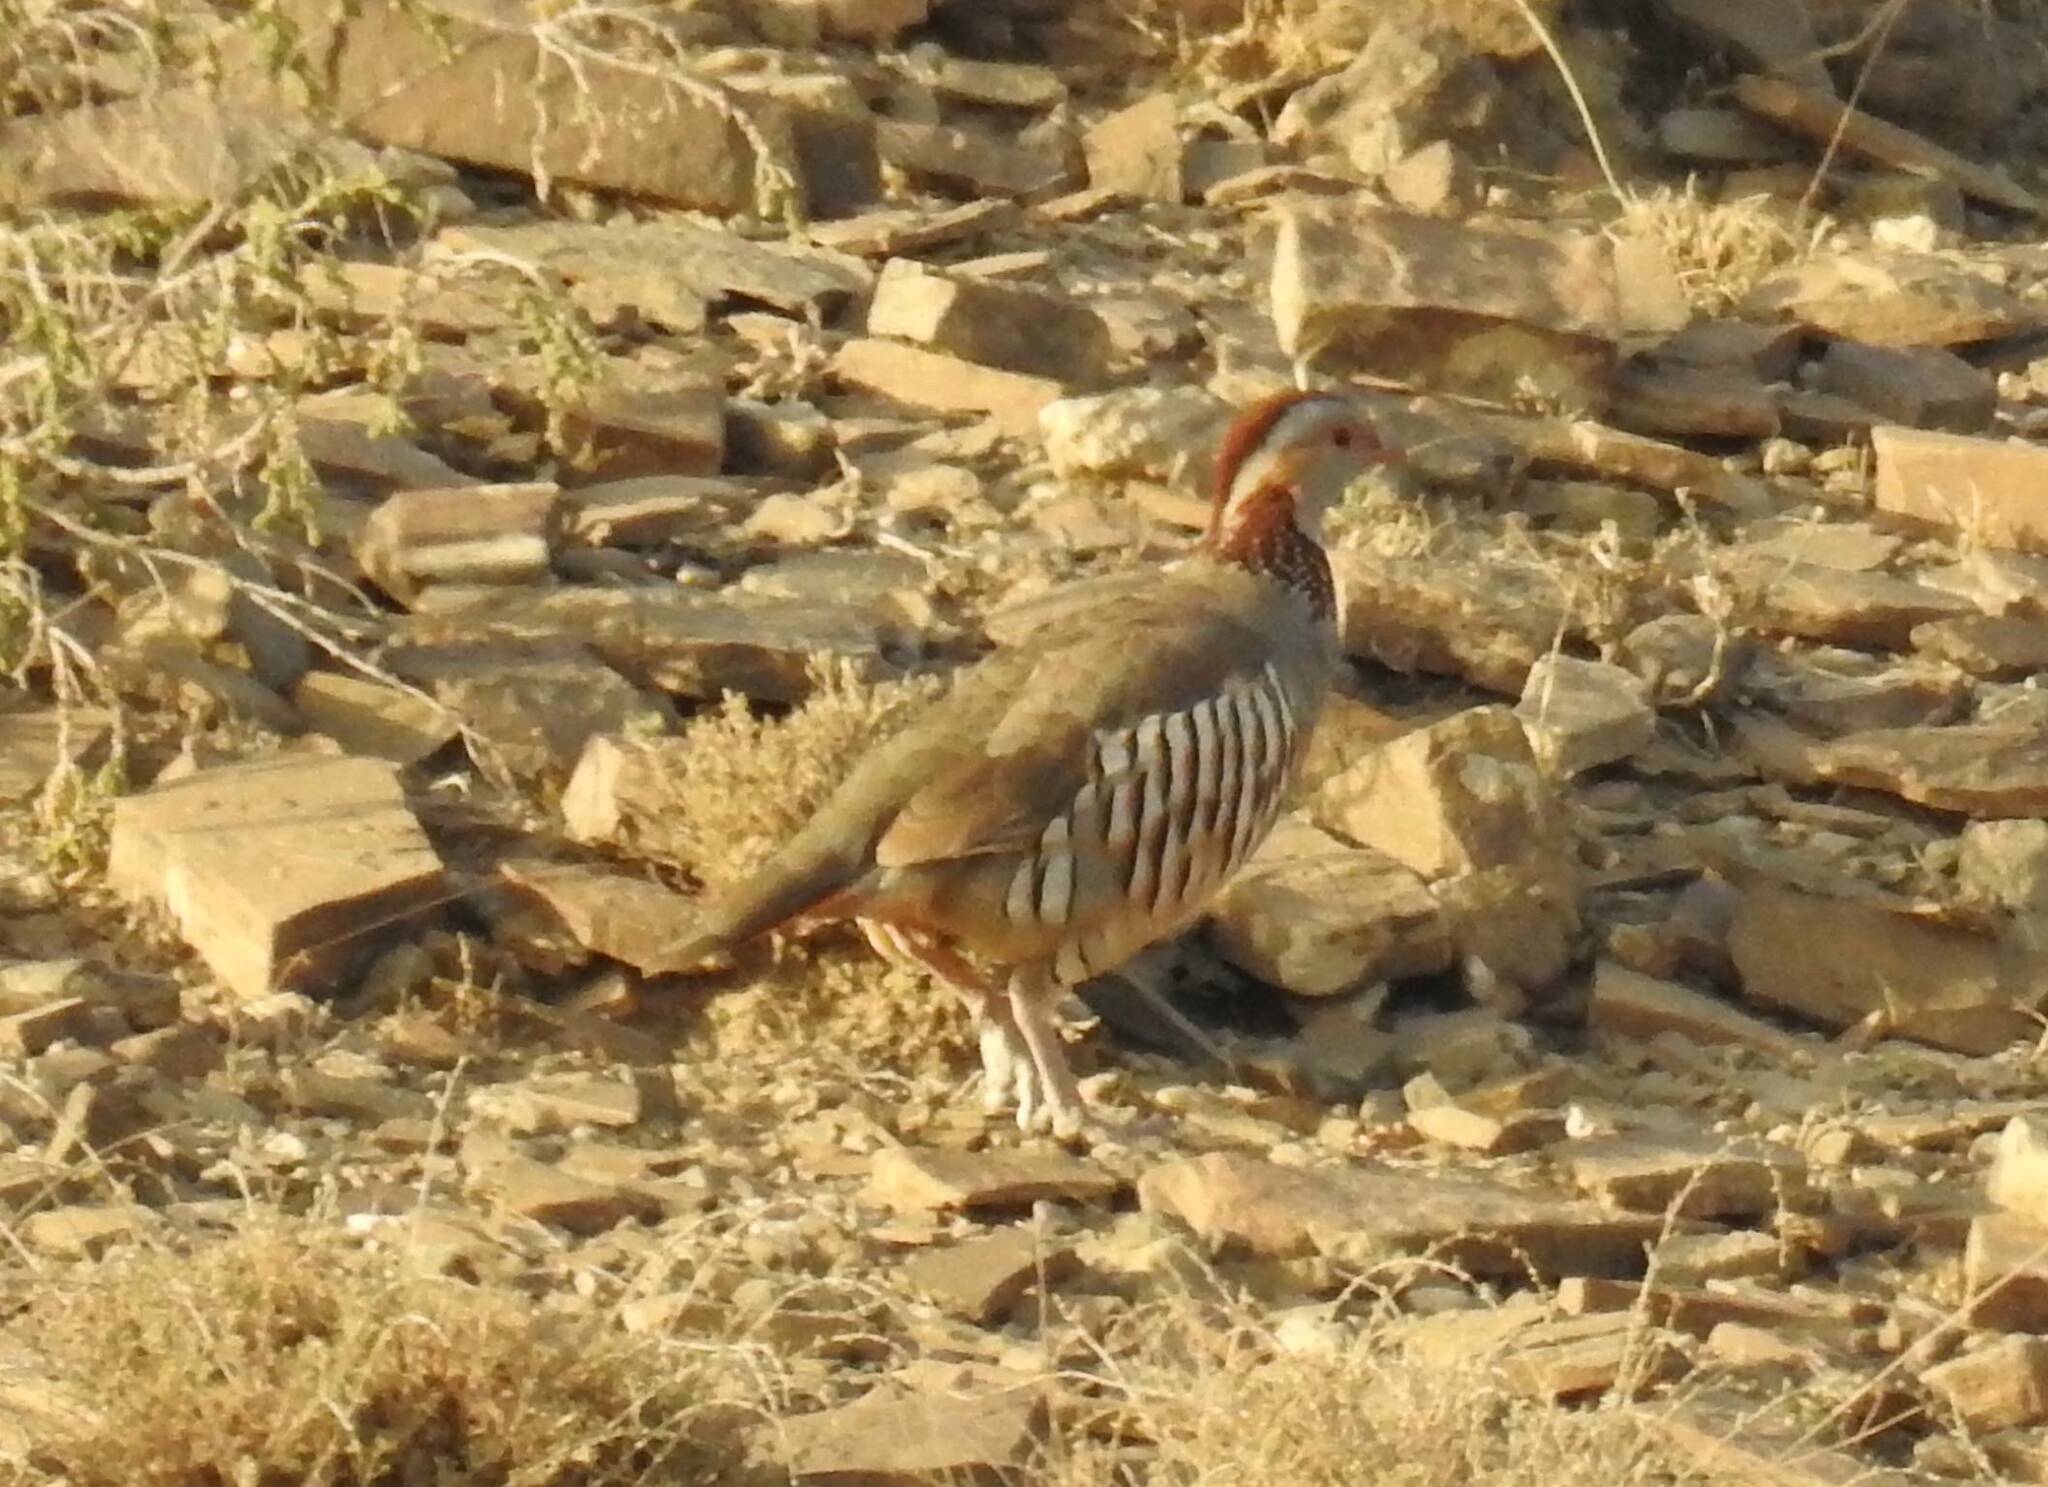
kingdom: Animalia
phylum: Chordata
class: Aves
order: Galliformes
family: Phasianidae
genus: Alectoris
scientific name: Alectoris barbara
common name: Barbary partridge
